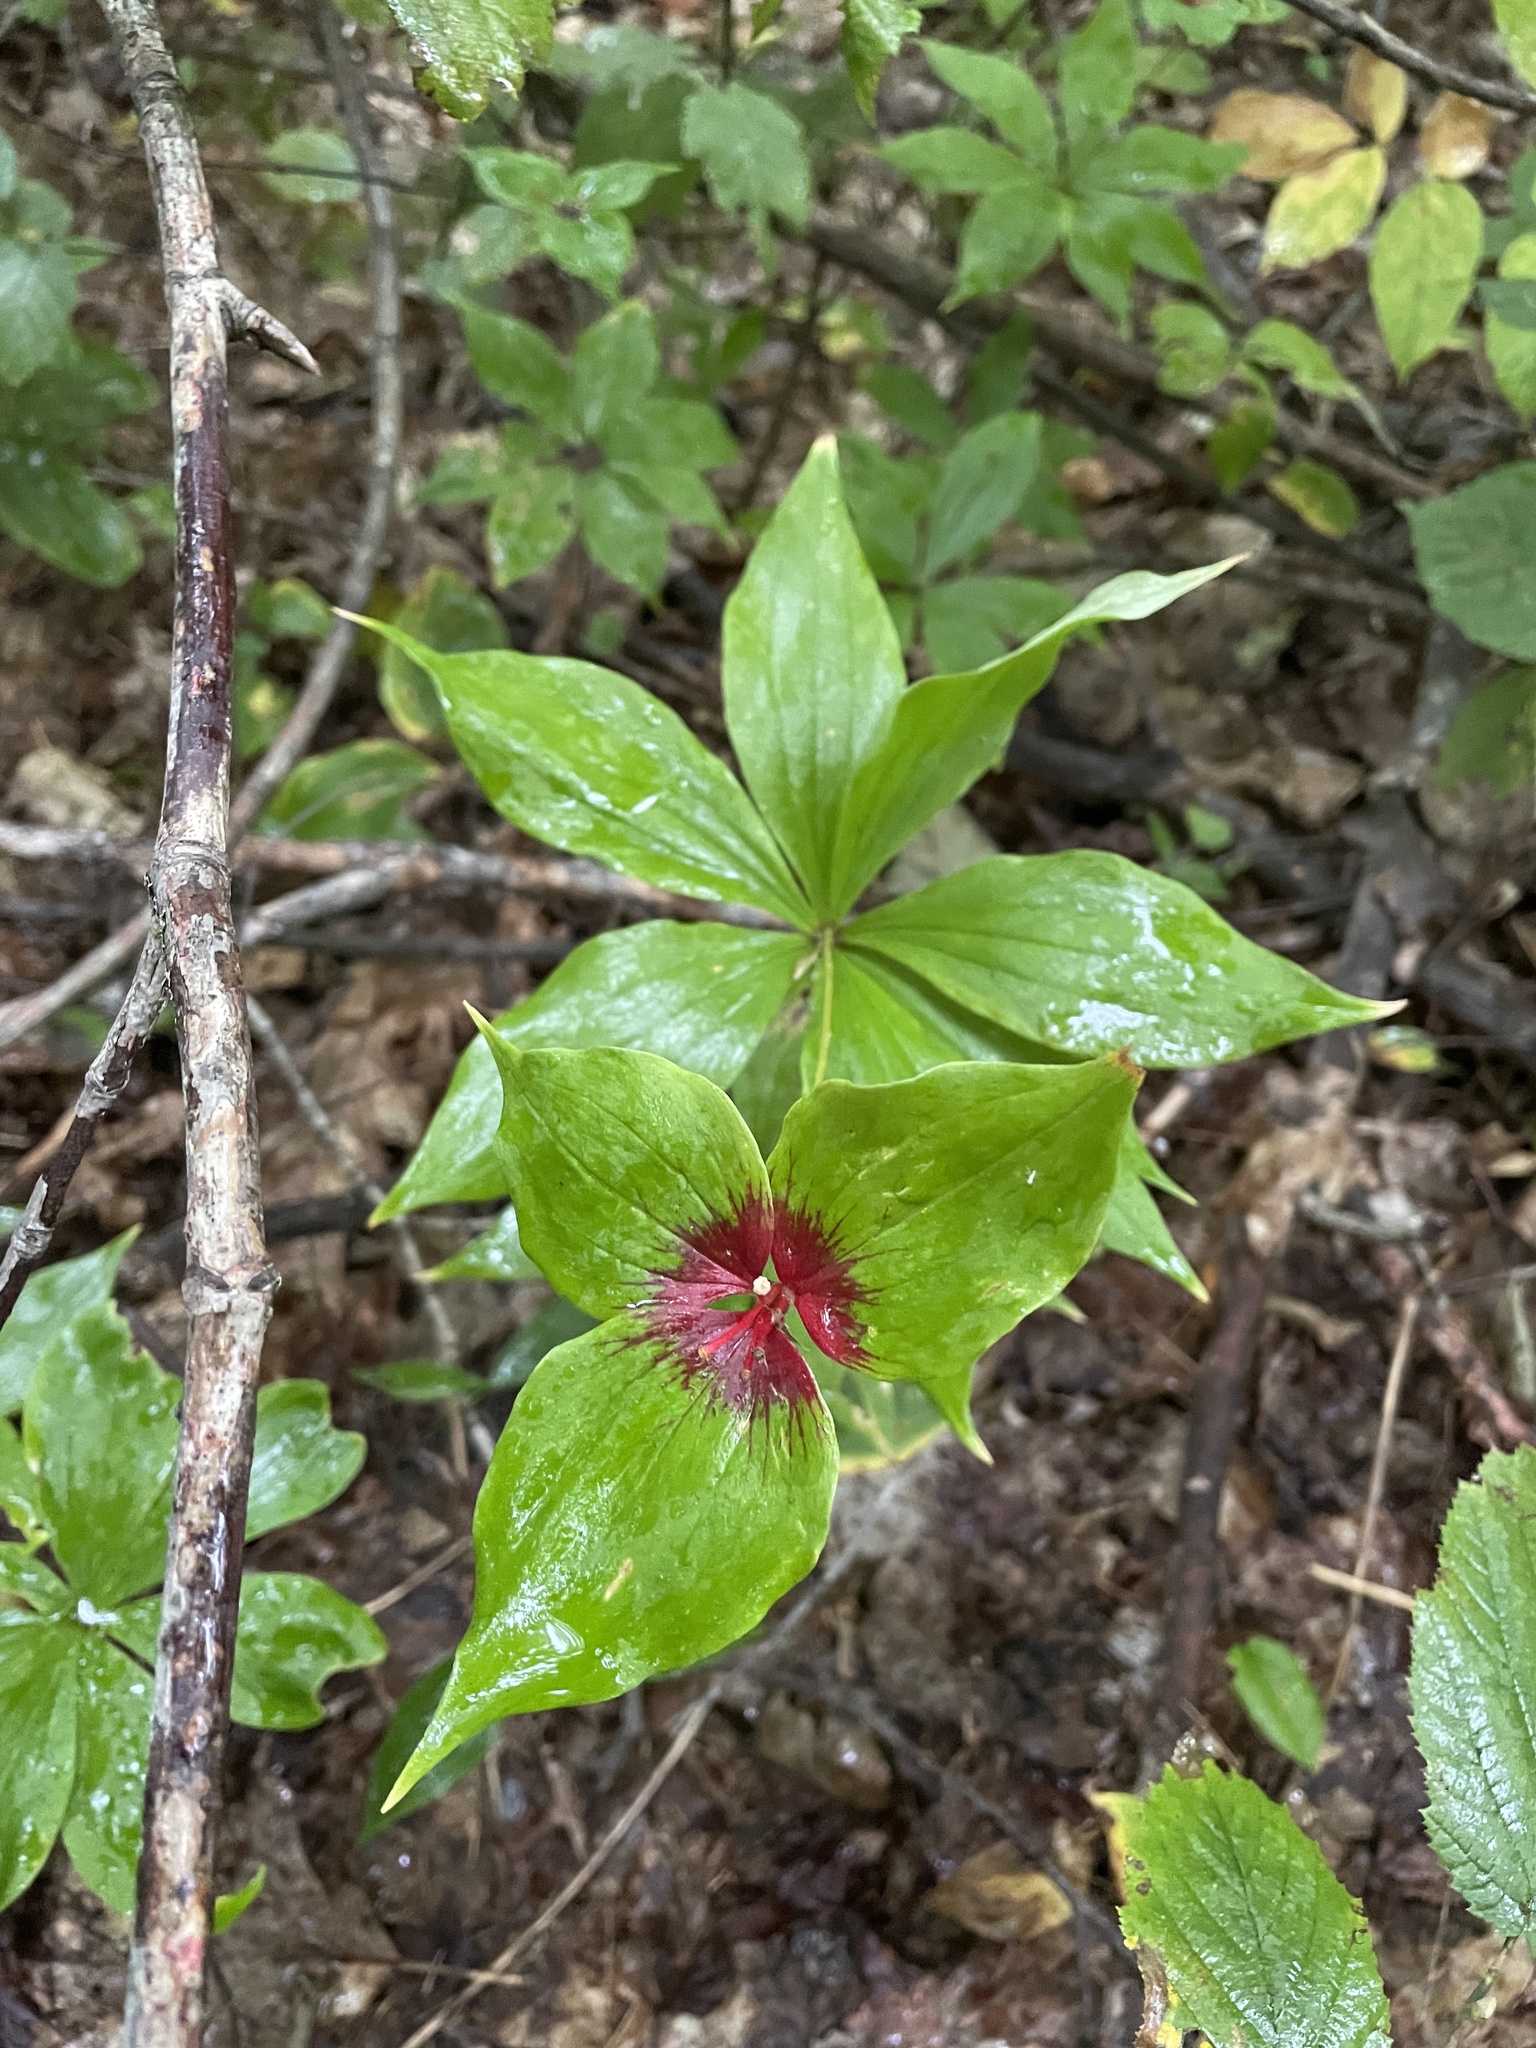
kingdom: Plantae
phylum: Tracheophyta
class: Liliopsida
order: Liliales
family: Liliaceae
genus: Medeola
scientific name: Medeola virginiana
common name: Indian cucumber-root
